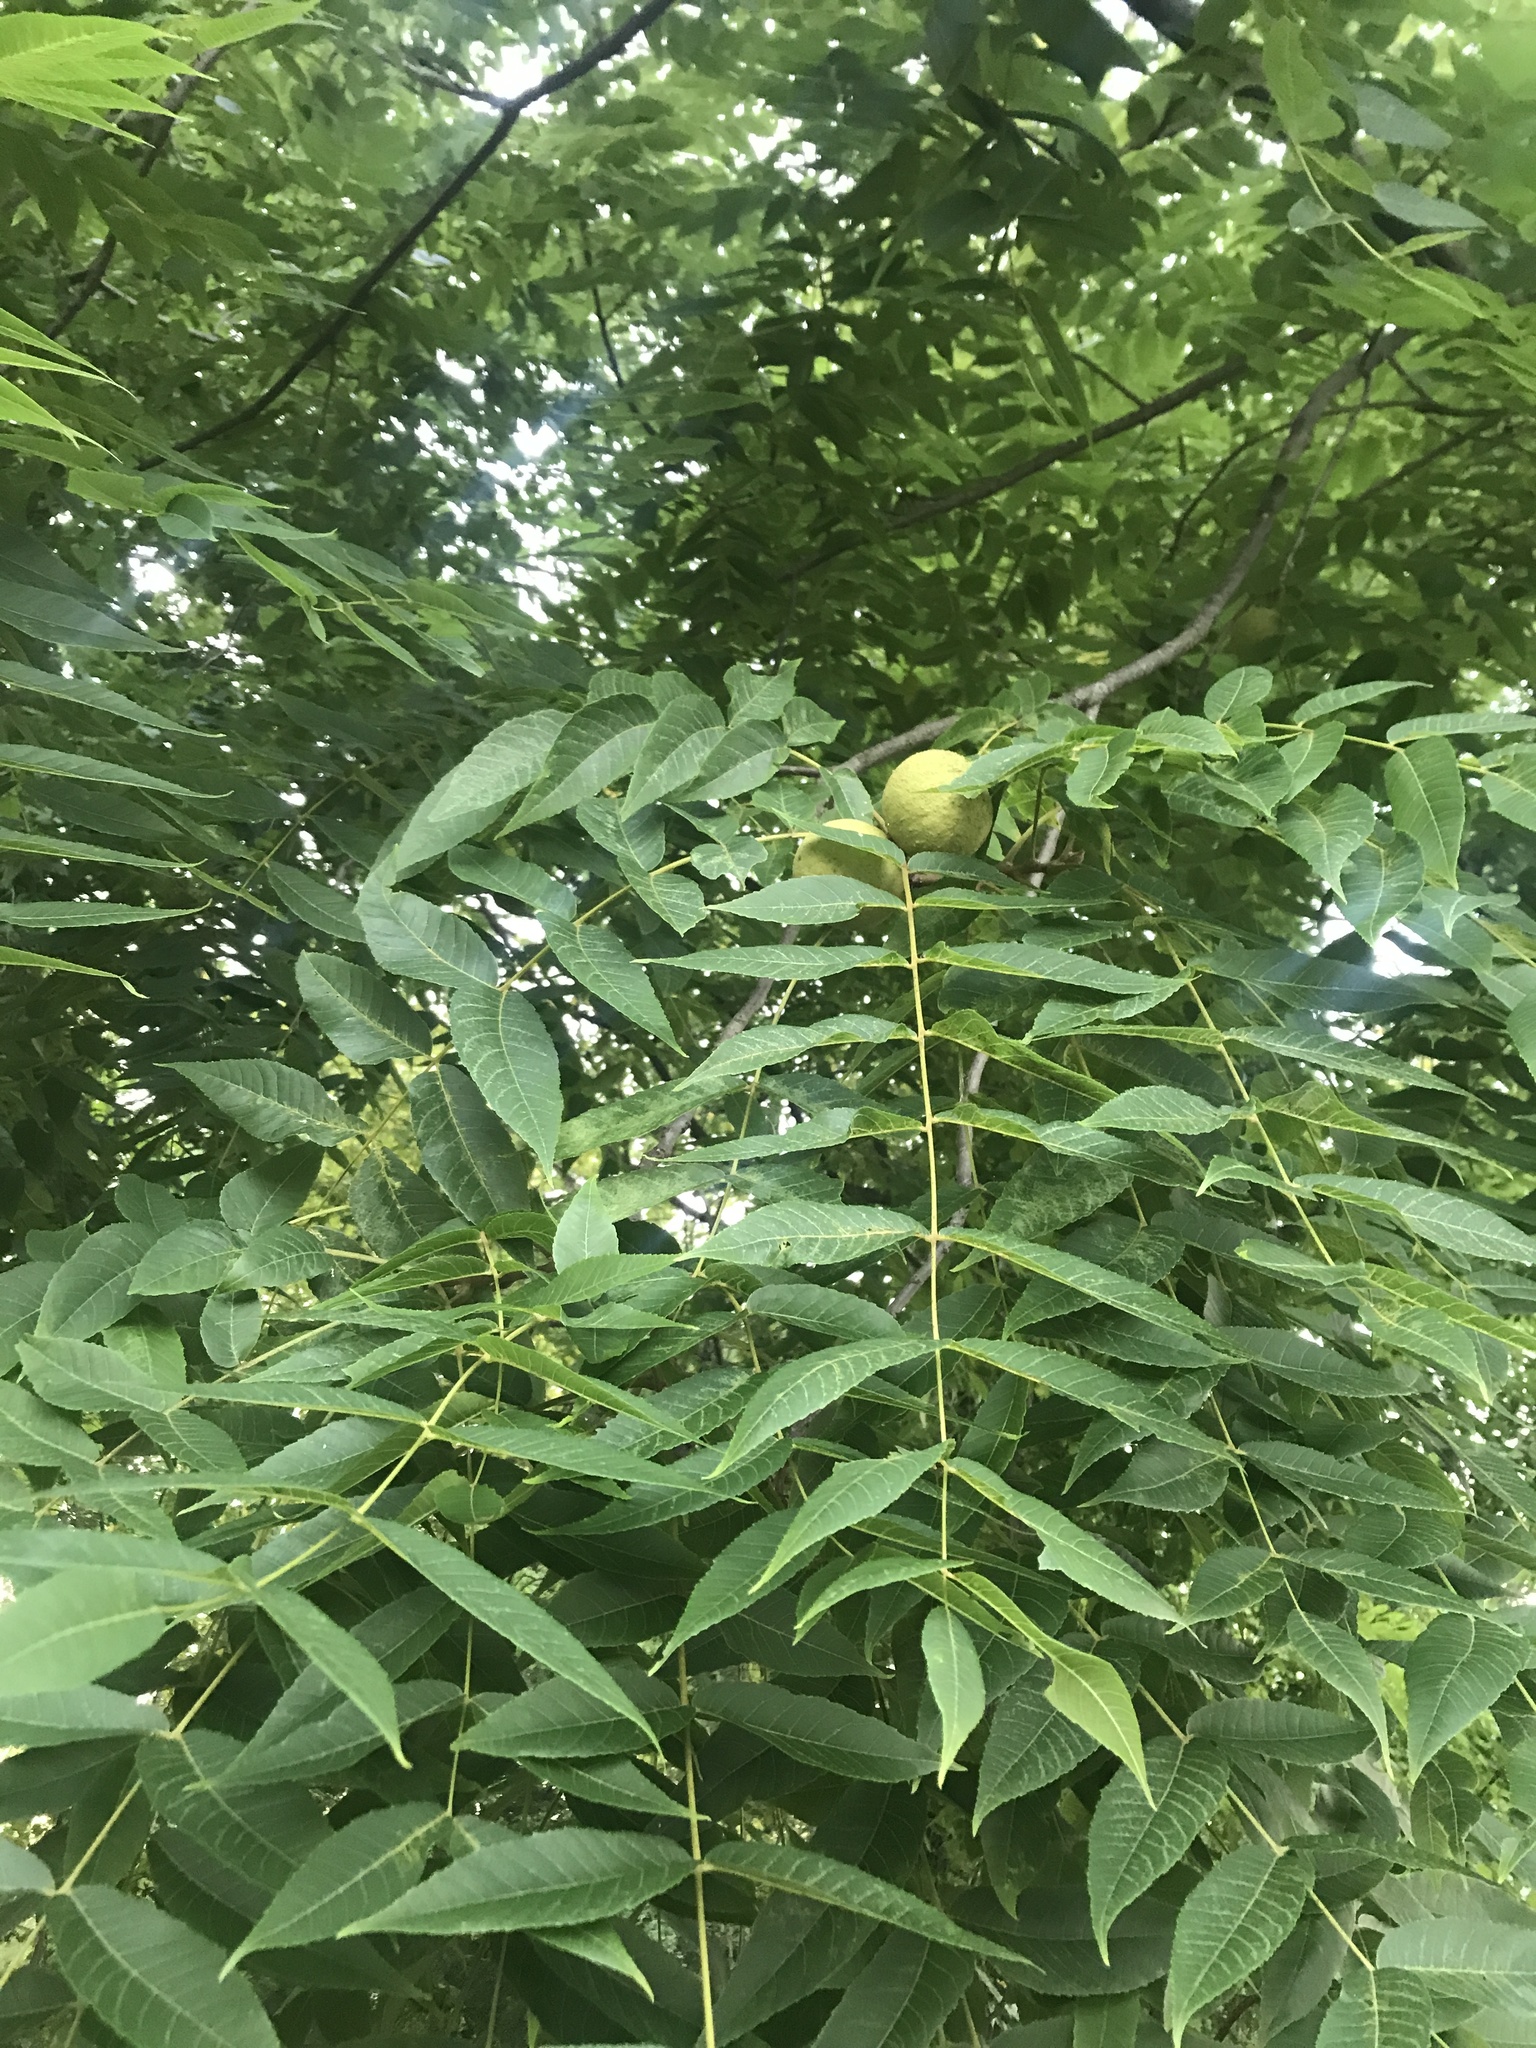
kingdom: Plantae
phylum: Tracheophyta
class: Magnoliopsida
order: Fagales
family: Juglandaceae
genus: Juglans
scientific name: Juglans nigra
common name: Black walnut
